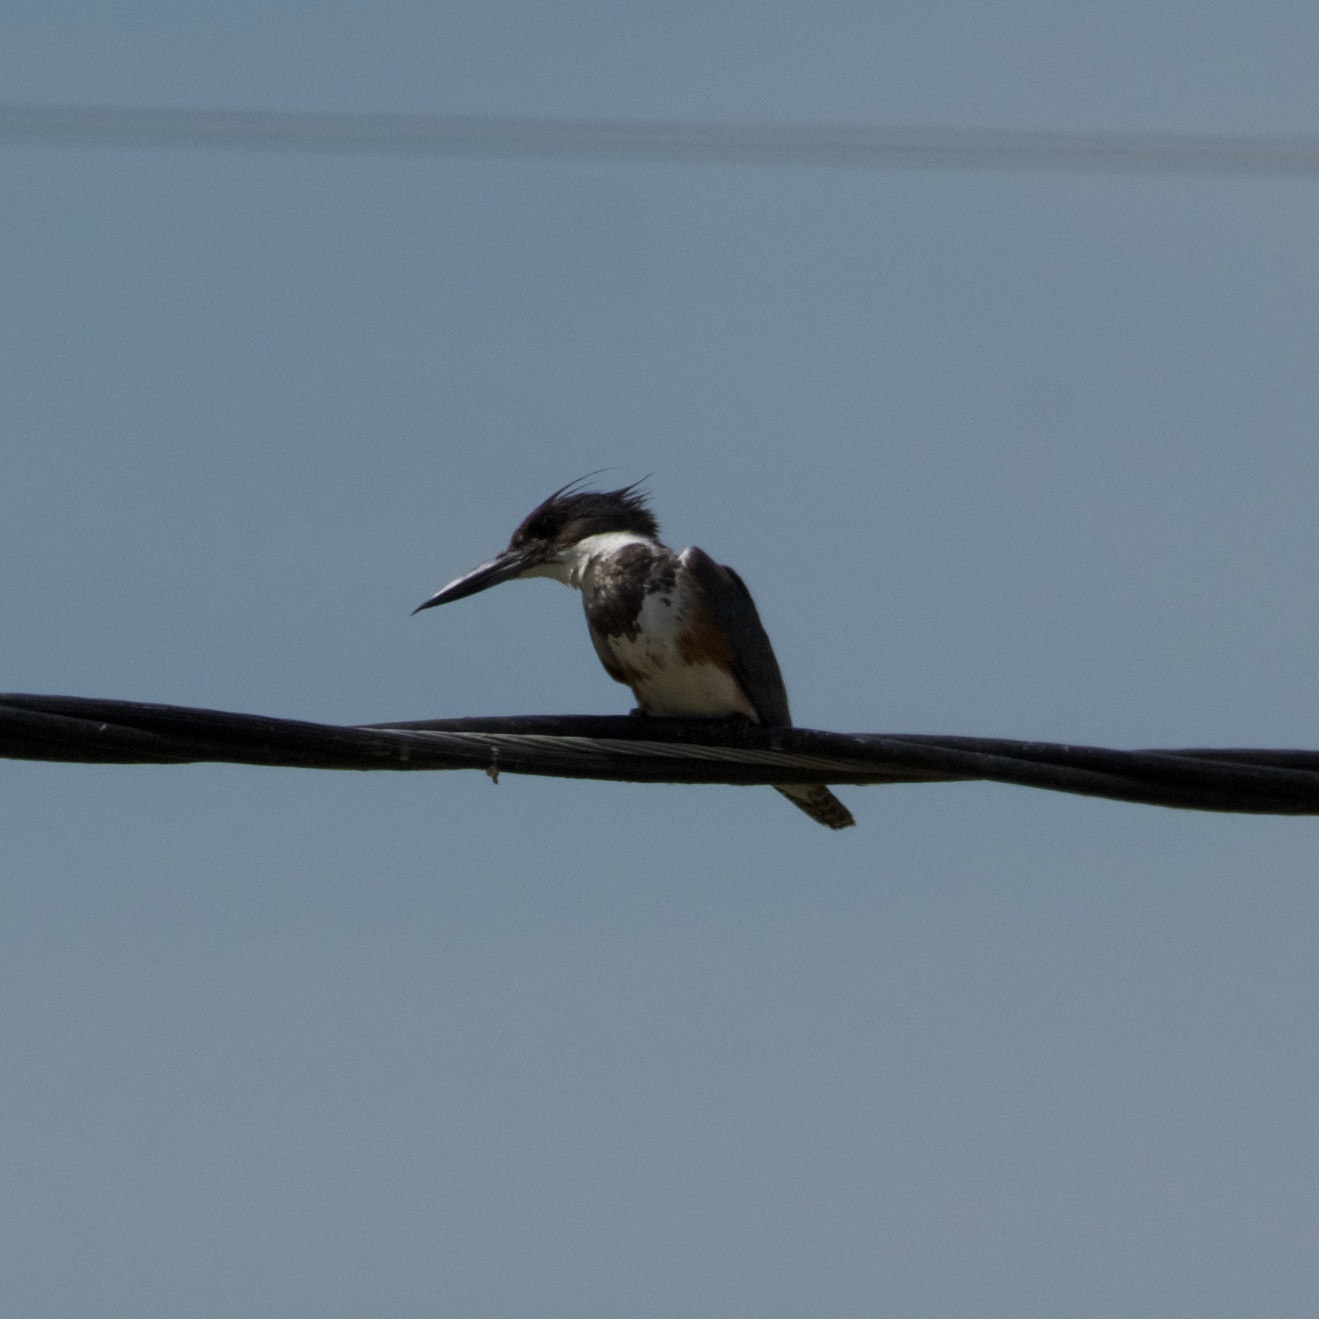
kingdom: Animalia
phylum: Chordata
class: Aves
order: Coraciiformes
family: Alcedinidae
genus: Megaceryle
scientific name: Megaceryle alcyon
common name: Belted kingfisher
